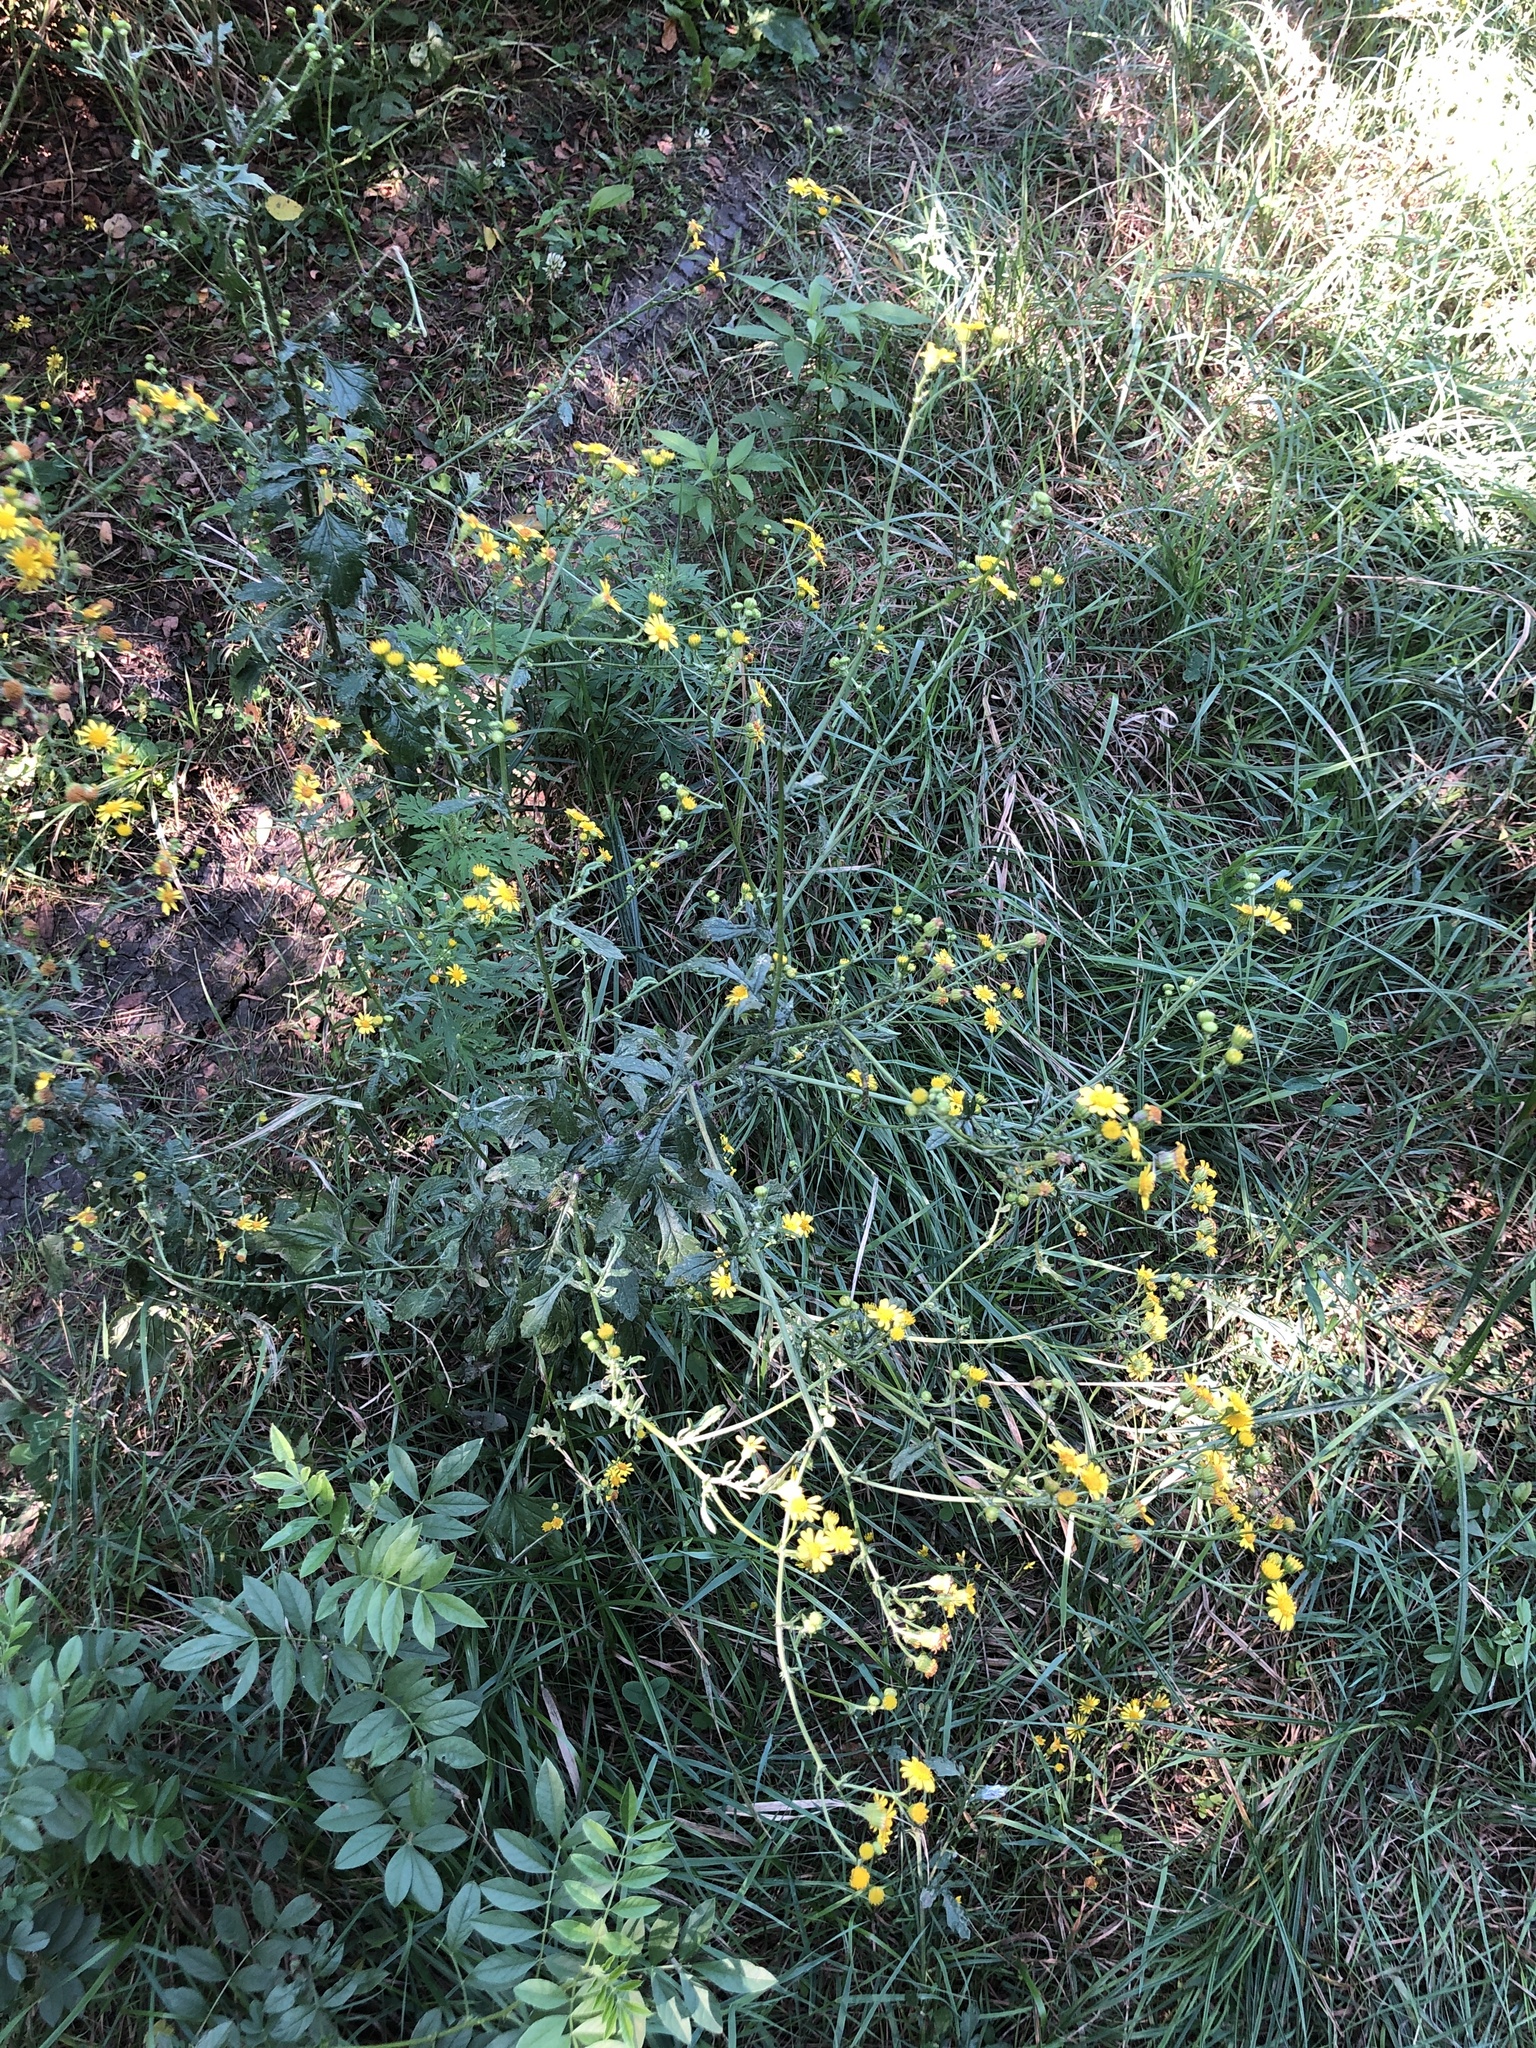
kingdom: Plantae
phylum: Tracheophyta
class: Magnoliopsida
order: Asterales
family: Asteraceae
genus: Jacobaea
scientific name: Jacobaea erratica
